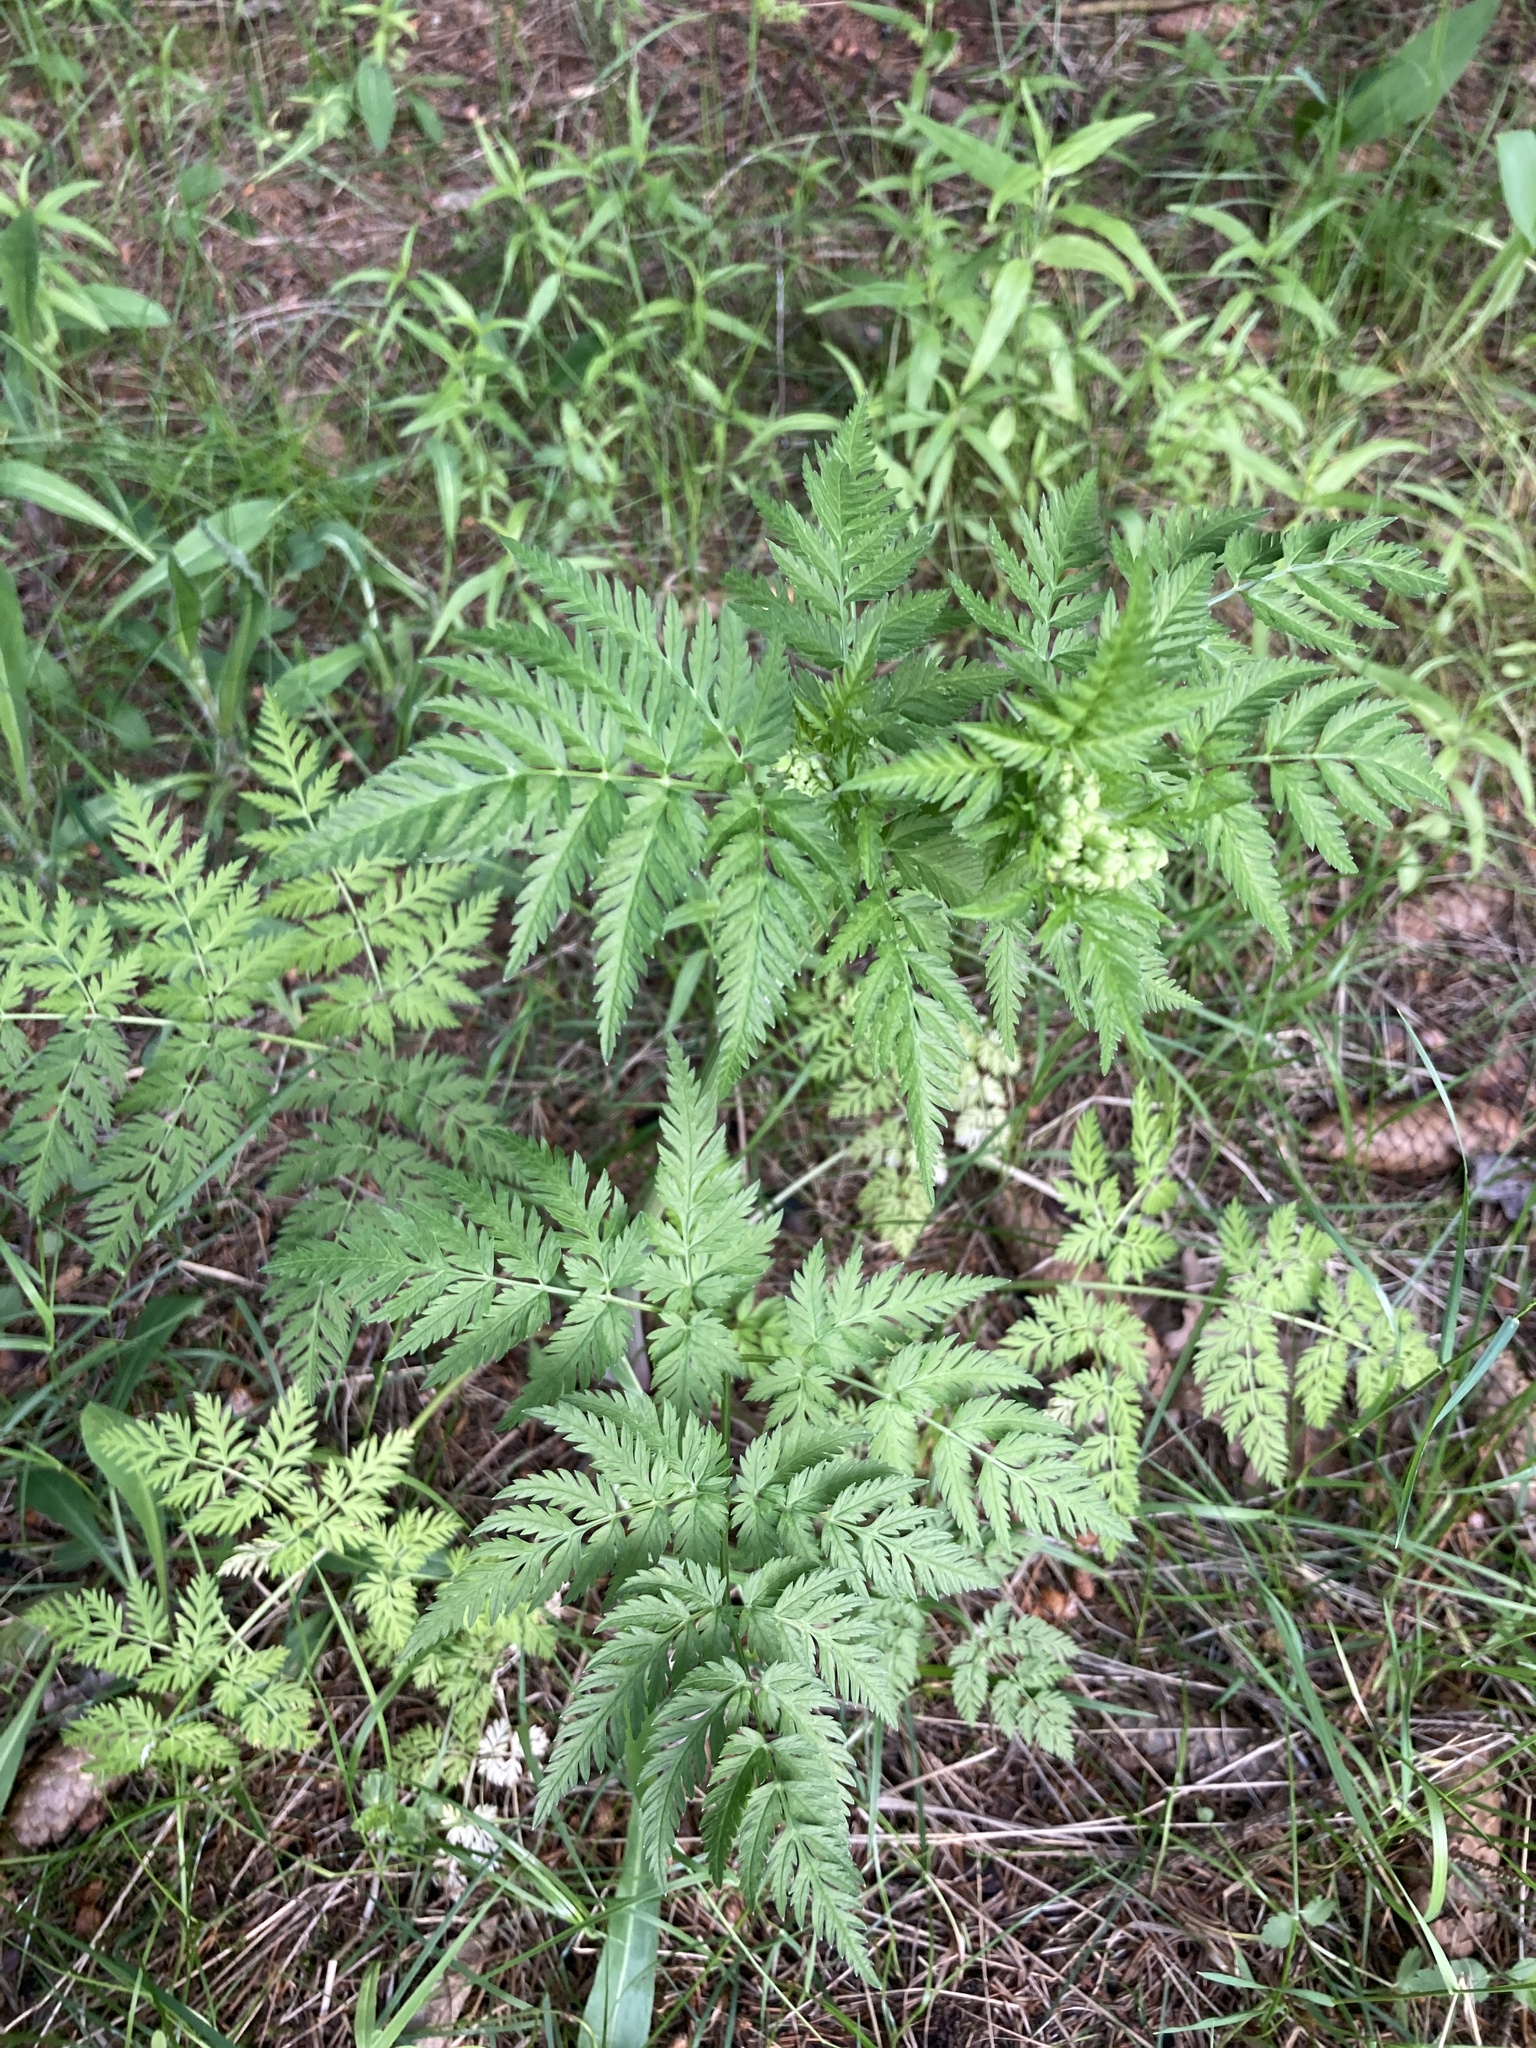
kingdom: Plantae
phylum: Tracheophyta
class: Magnoliopsida
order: Apiales
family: Apiaceae
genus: Anthriscus
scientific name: Anthriscus sylvestris
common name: Cow parsley
